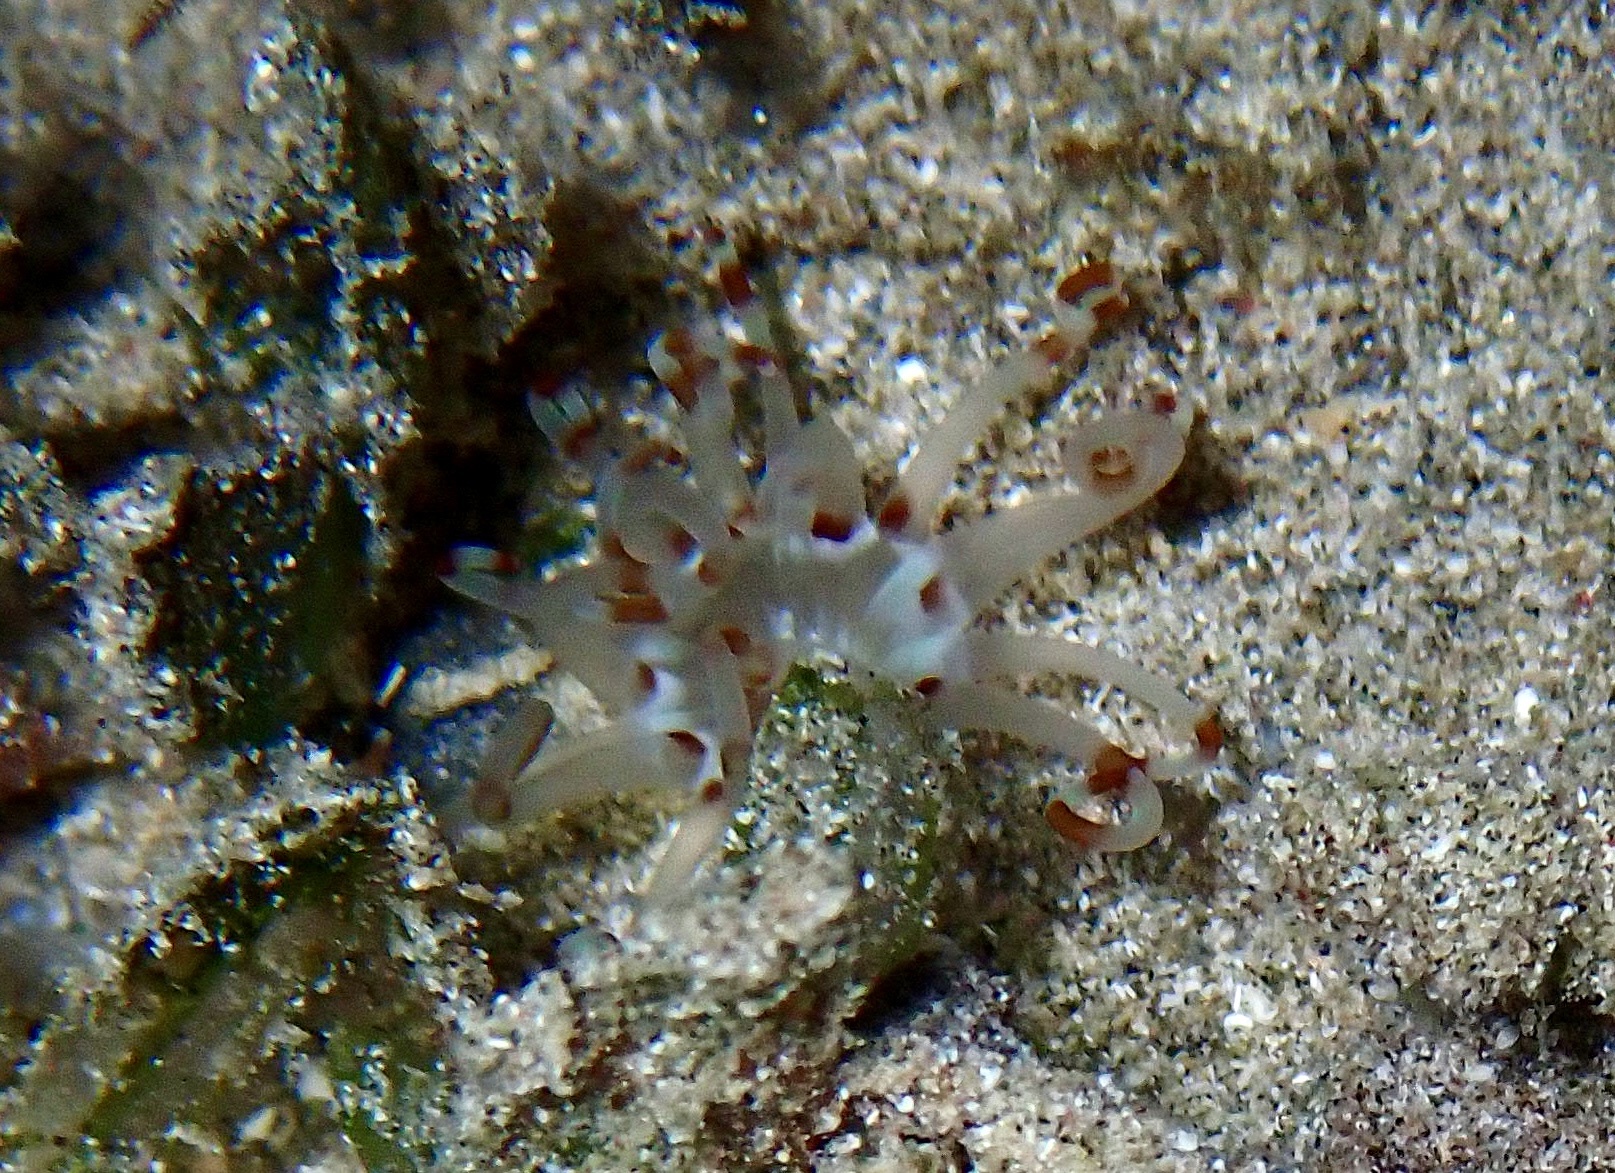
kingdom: Animalia
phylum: Cnidaria
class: Anthozoa
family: Arachnactidae
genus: Arachnanthus
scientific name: Arachnanthus lilith
